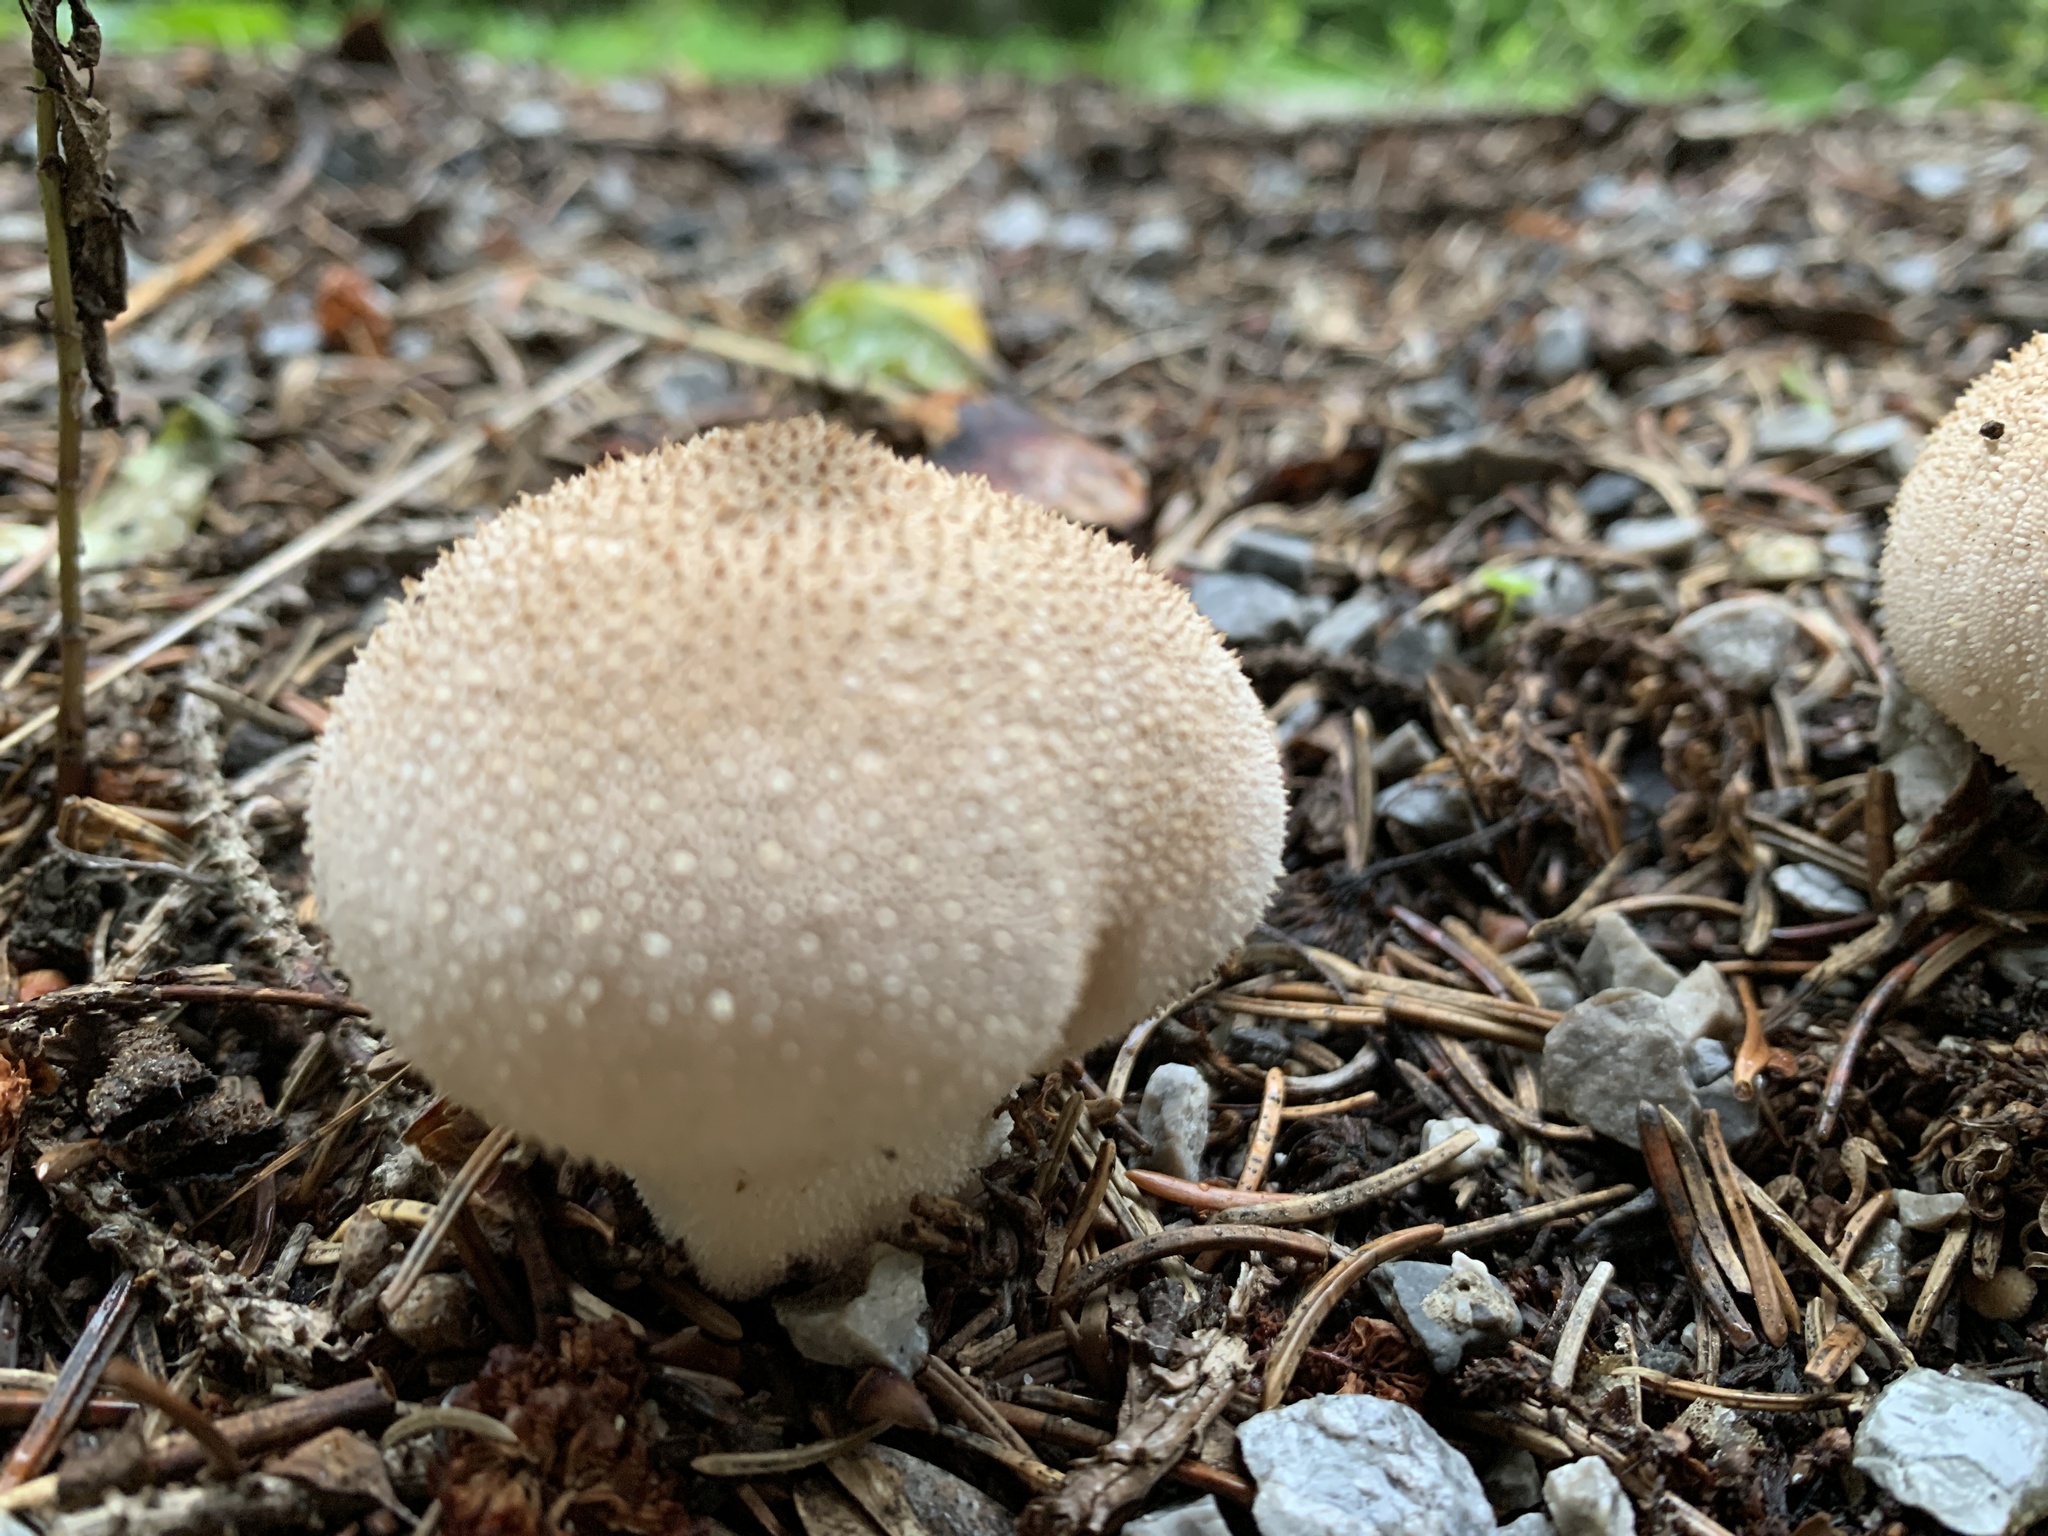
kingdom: Fungi
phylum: Basidiomycota
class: Agaricomycetes
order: Agaricales
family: Lycoperdaceae
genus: Lycoperdon
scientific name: Lycoperdon perlatum
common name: Common puffball
